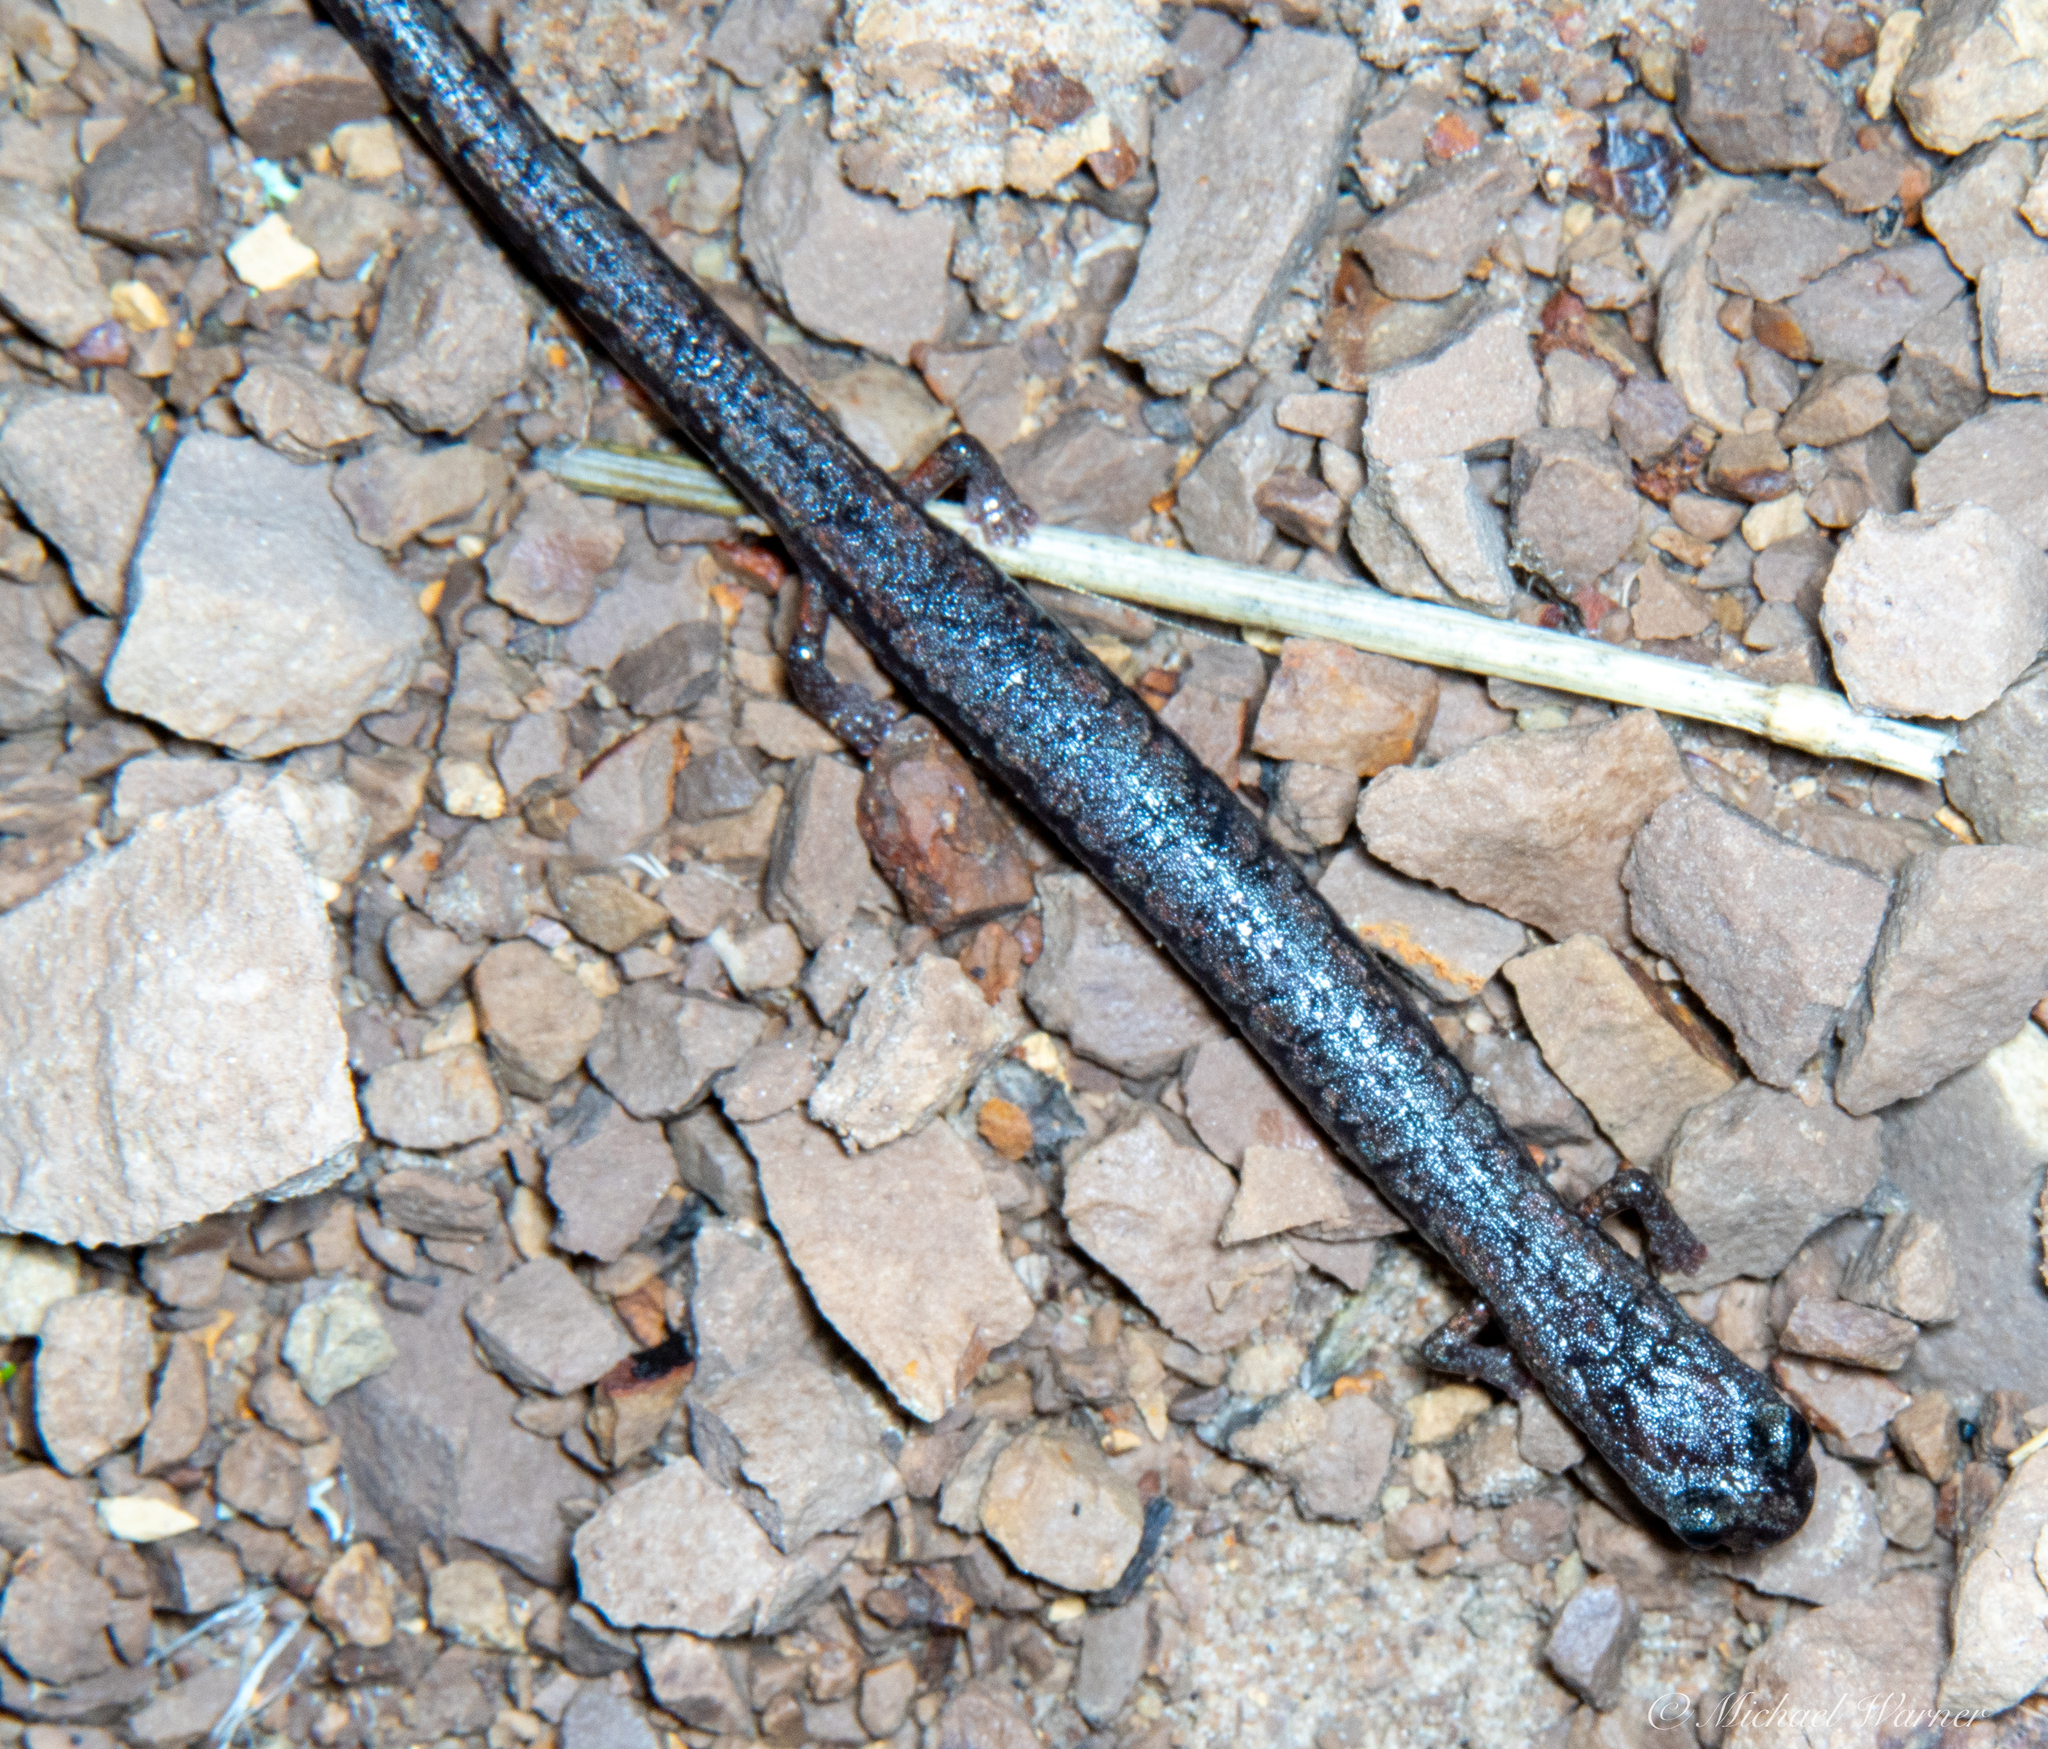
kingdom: Animalia
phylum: Chordata
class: Amphibia
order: Caudata
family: Plethodontidae
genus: Batrachoseps
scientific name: Batrachoseps attenuatus
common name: California slender salamander
